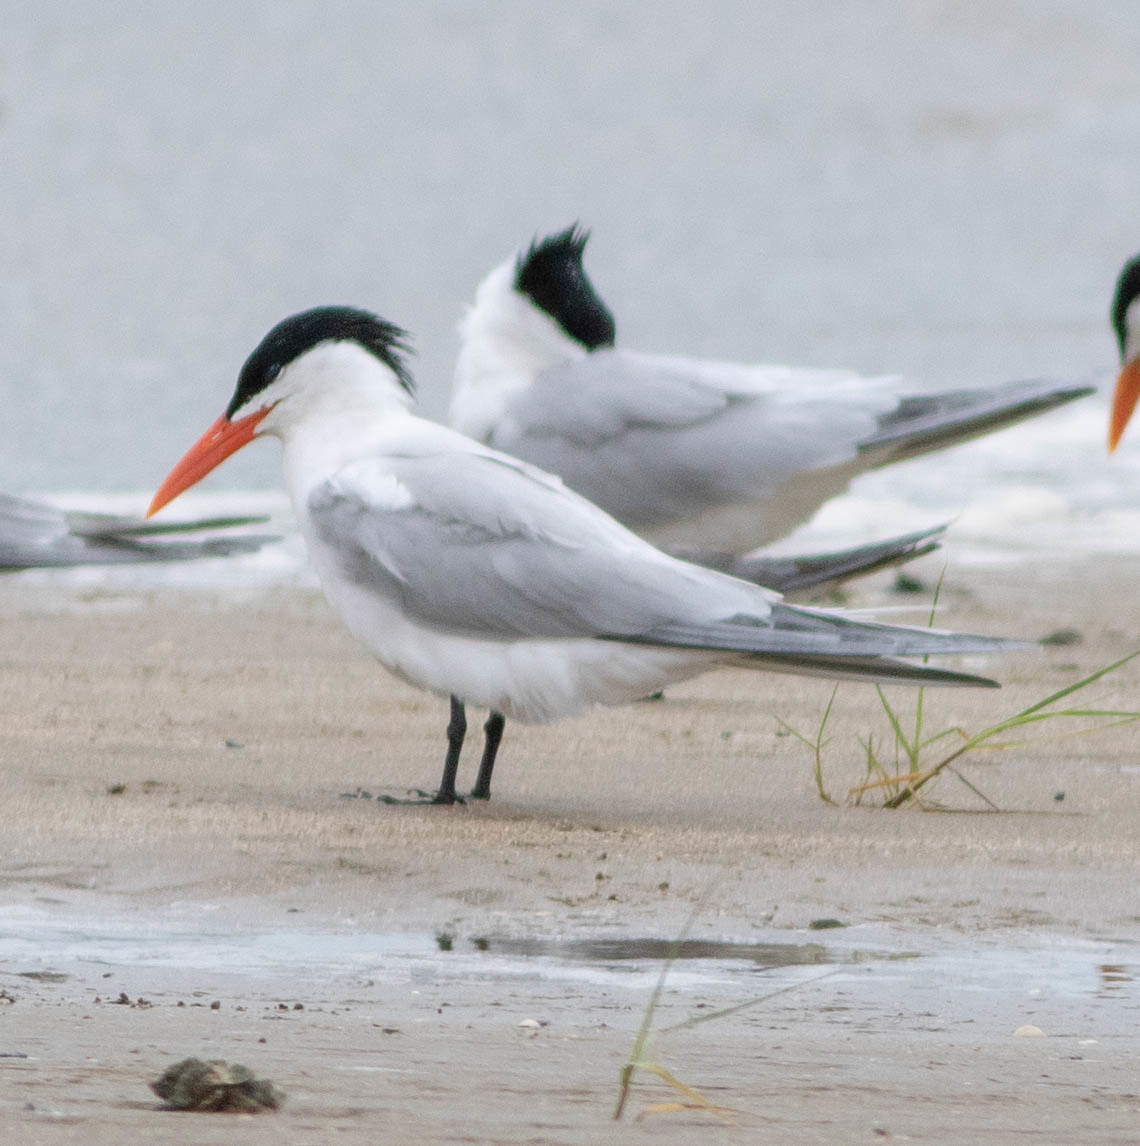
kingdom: Animalia
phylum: Chordata
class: Aves
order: Charadriiformes
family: Laridae
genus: Hydroprogne
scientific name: Hydroprogne caspia
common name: Caspian tern
